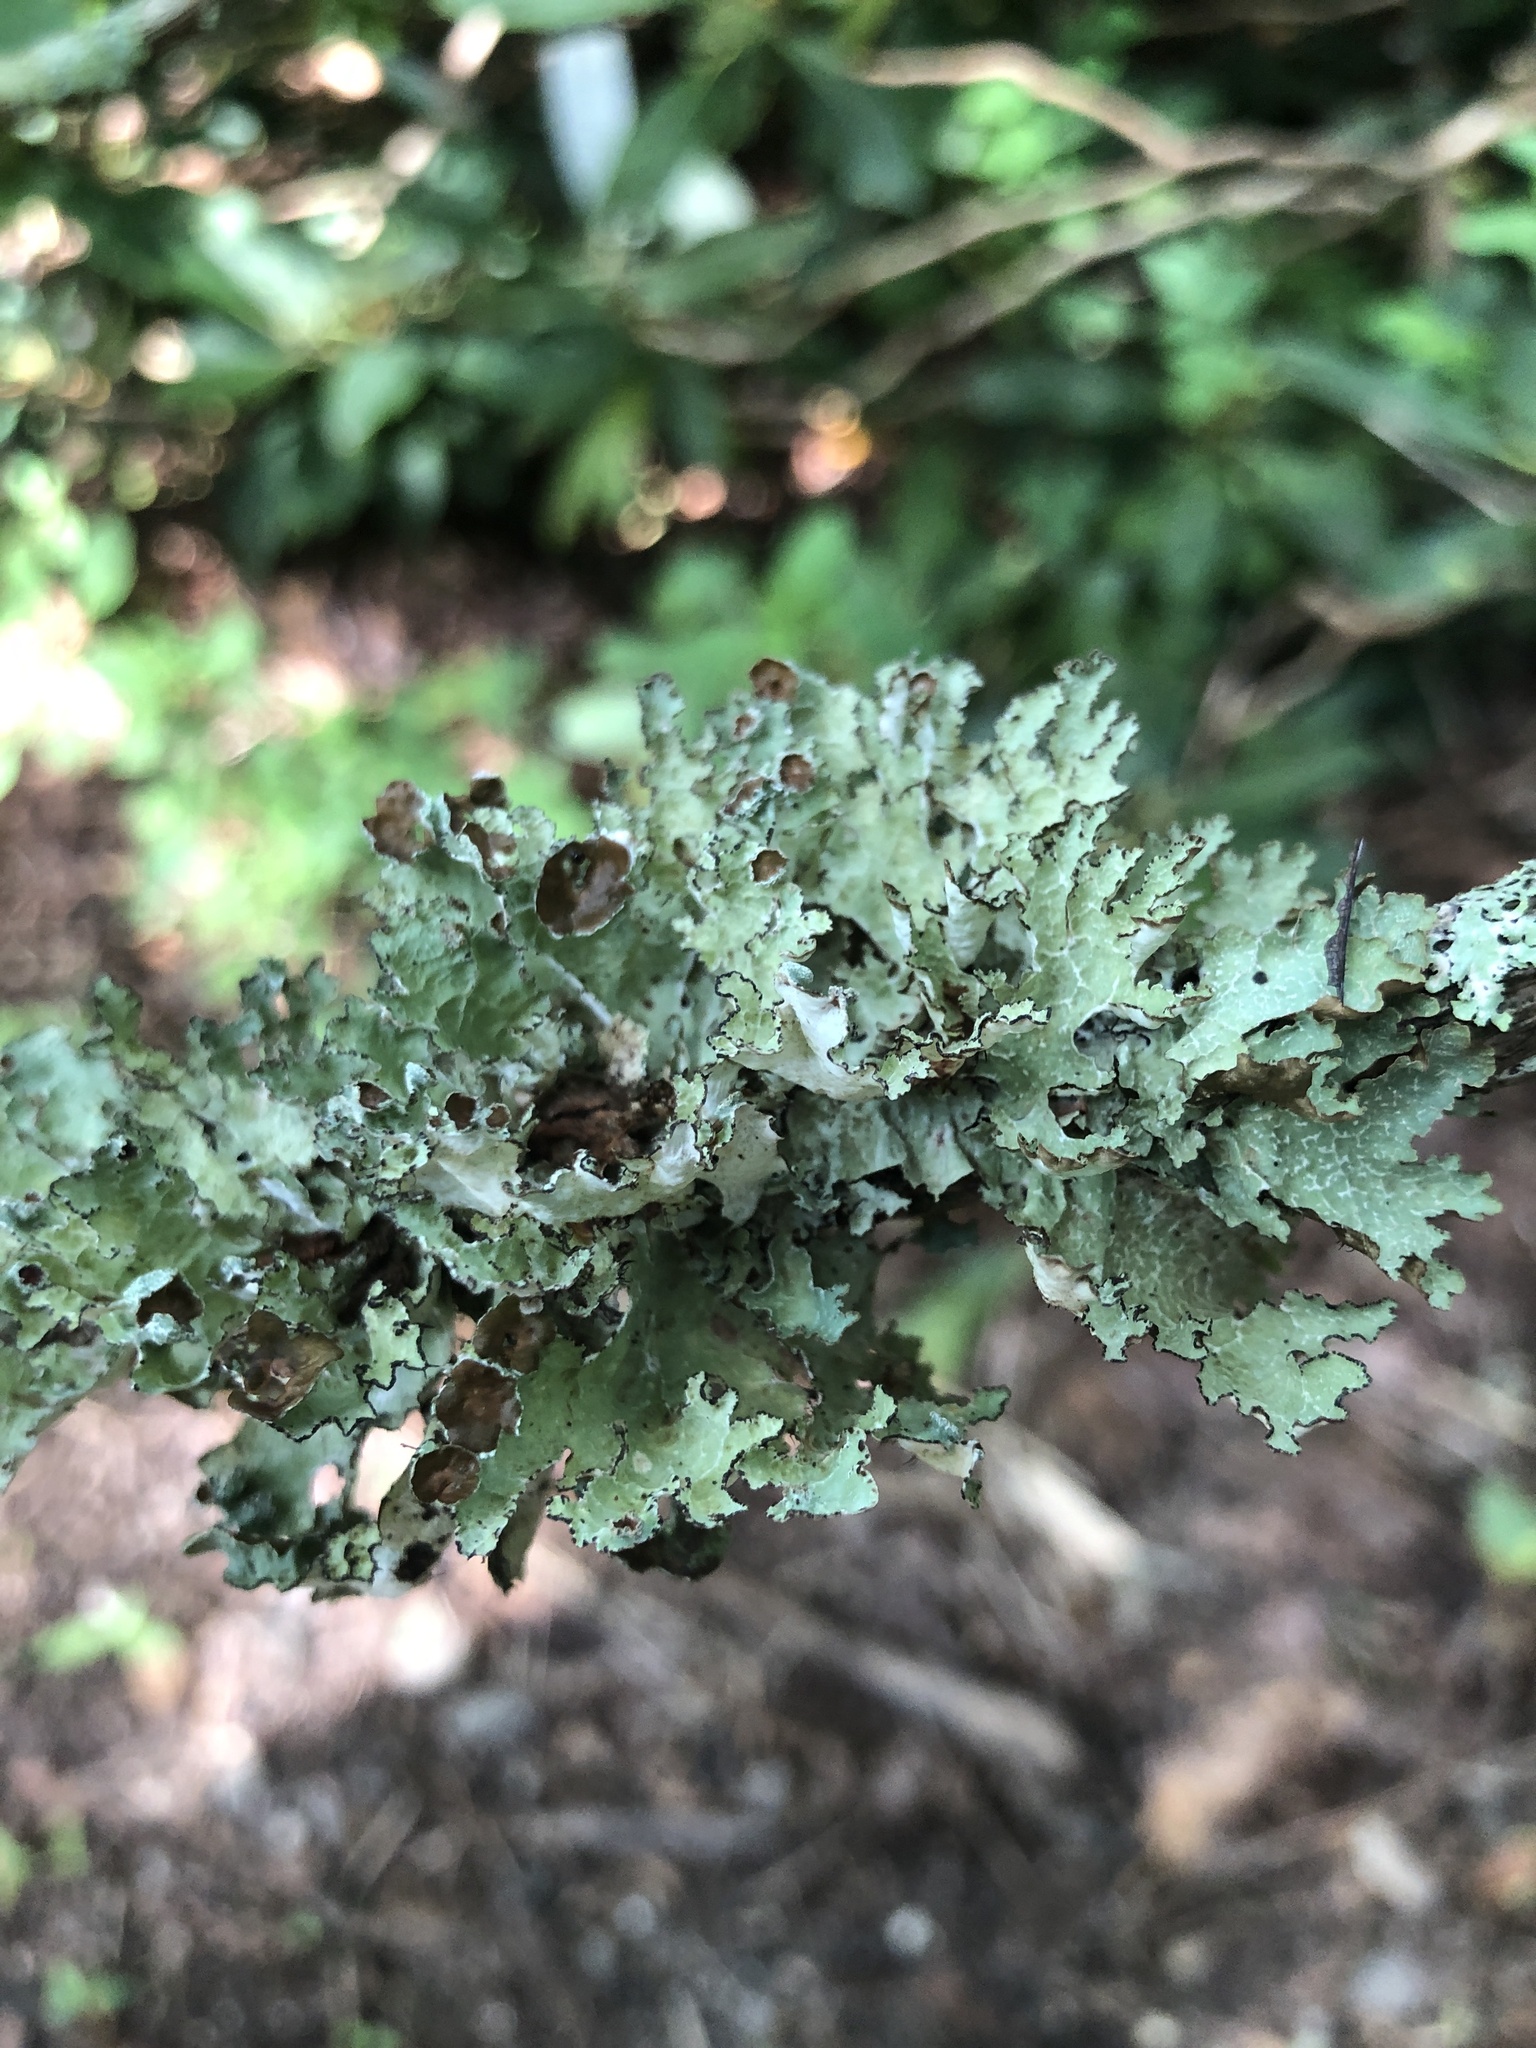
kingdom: Fungi
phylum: Ascomycota
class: Lecanoromycetes
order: Lecanorales
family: Parmeliaceae
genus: Platismatia
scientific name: Platismatia tuckermanii
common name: Crumpled rag lichen
